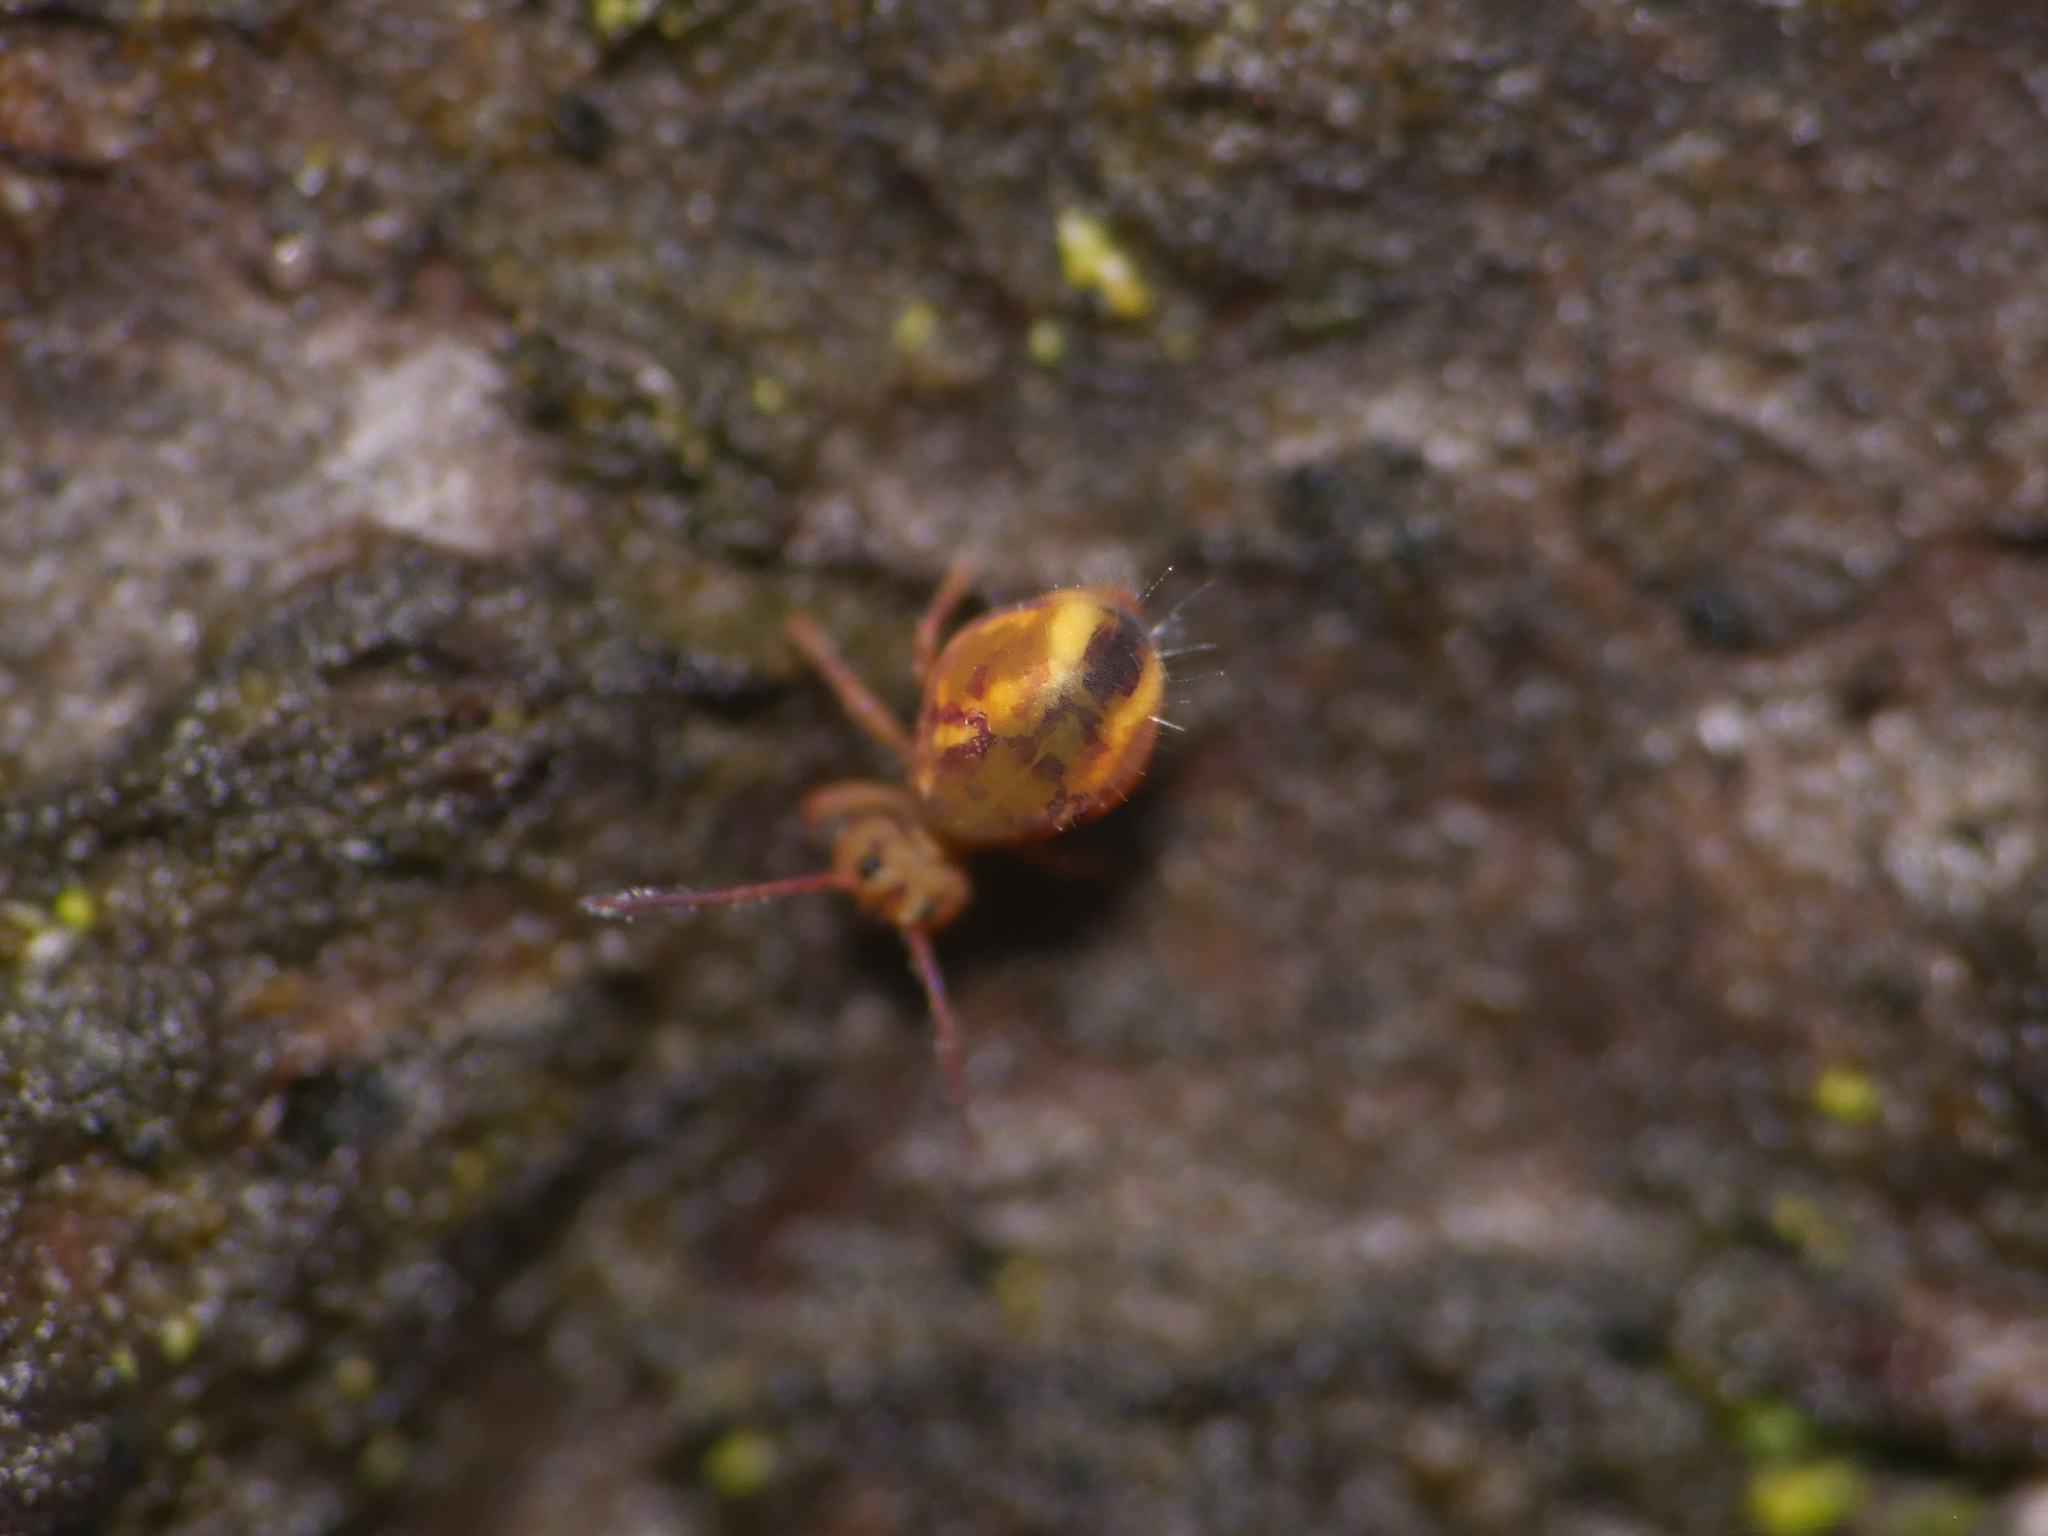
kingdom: Animalia
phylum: Arthropoda
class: Collembola
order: Symphypleona
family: Dicyrtomidae
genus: Dicyrtomina
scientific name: Dicyrtomina ornata
